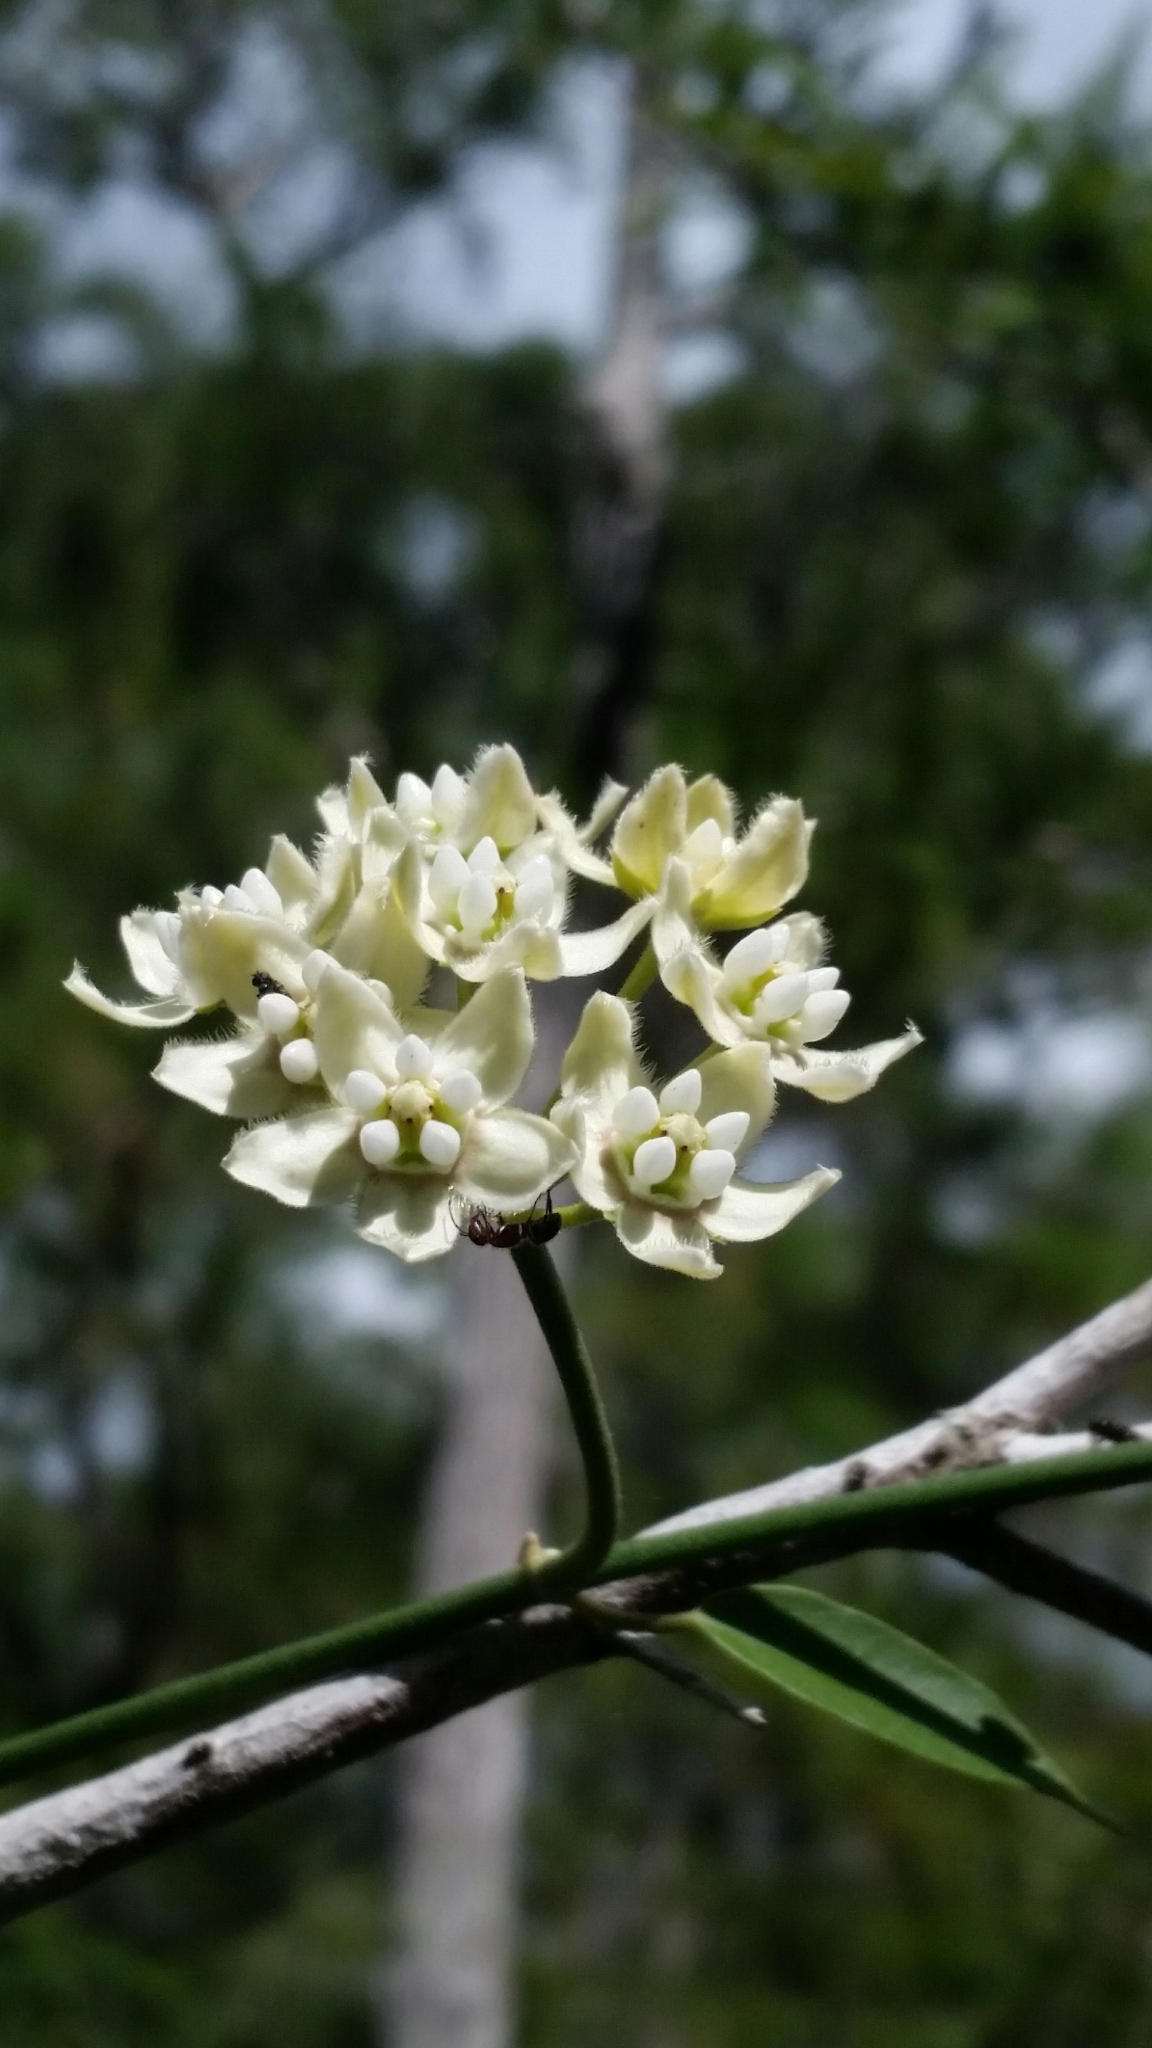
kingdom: Plantae
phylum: Tracheophyta
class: Magnoliopsida
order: Gentianales
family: Apocynaceae
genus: Funastrum
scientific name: Funastrum clausum
